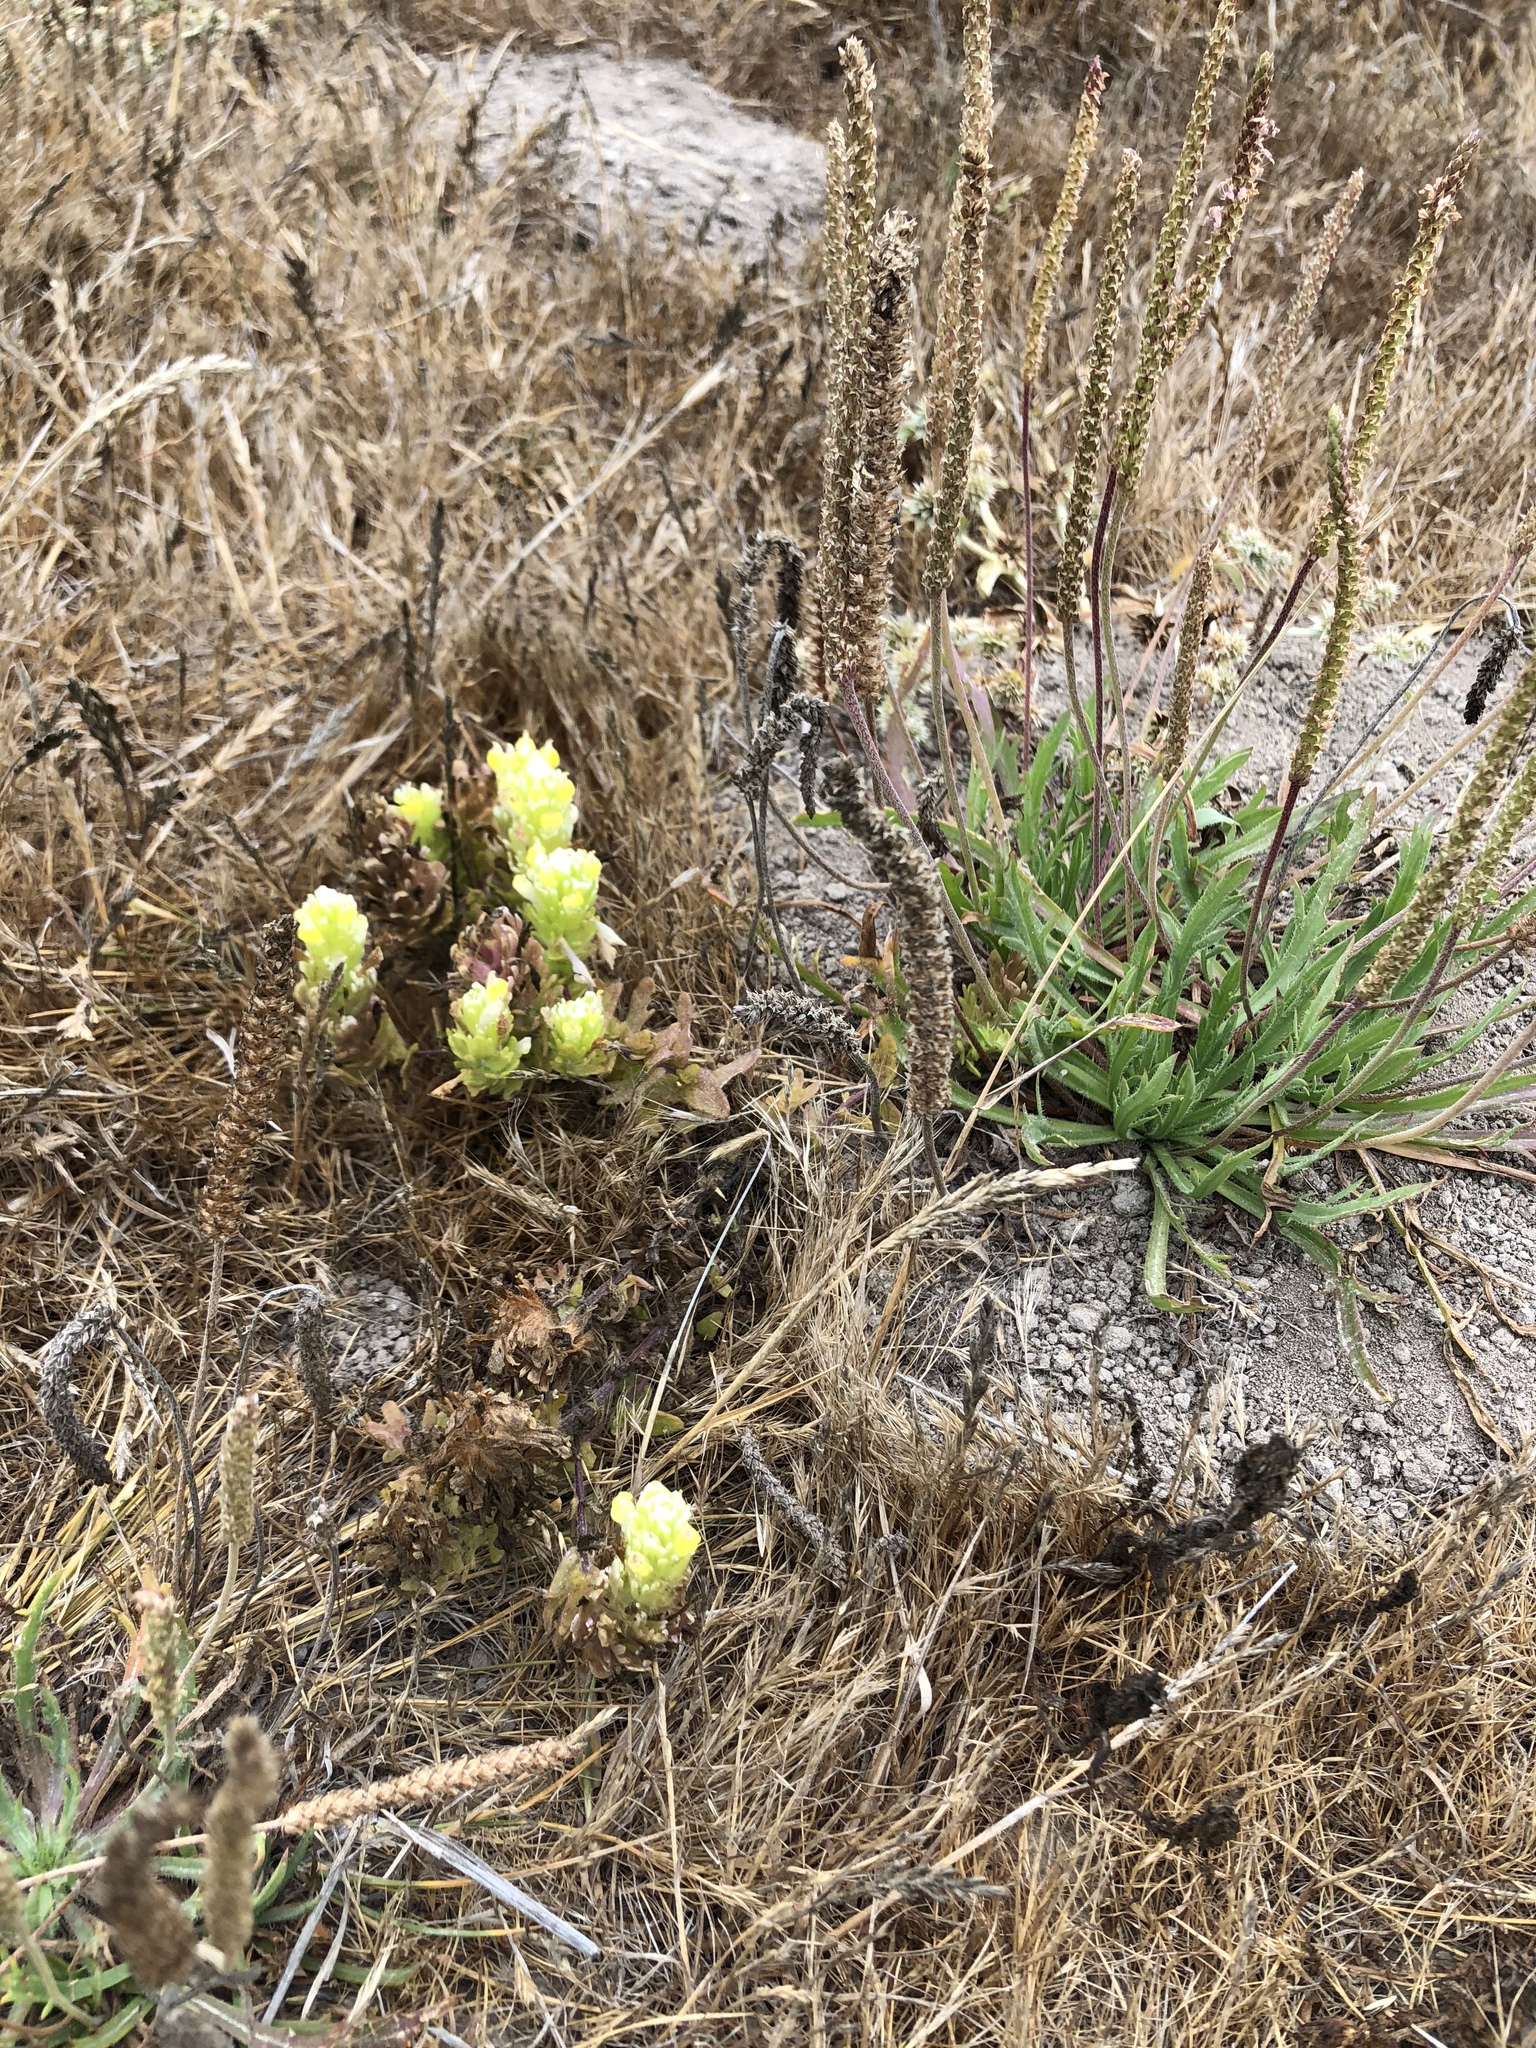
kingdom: Plantae
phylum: Tracheophyta
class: Magnoliopsida
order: Lamiales
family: Orobanchaceae
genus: Castilleja
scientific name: Castilleja ambigua
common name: Johnny-nip
